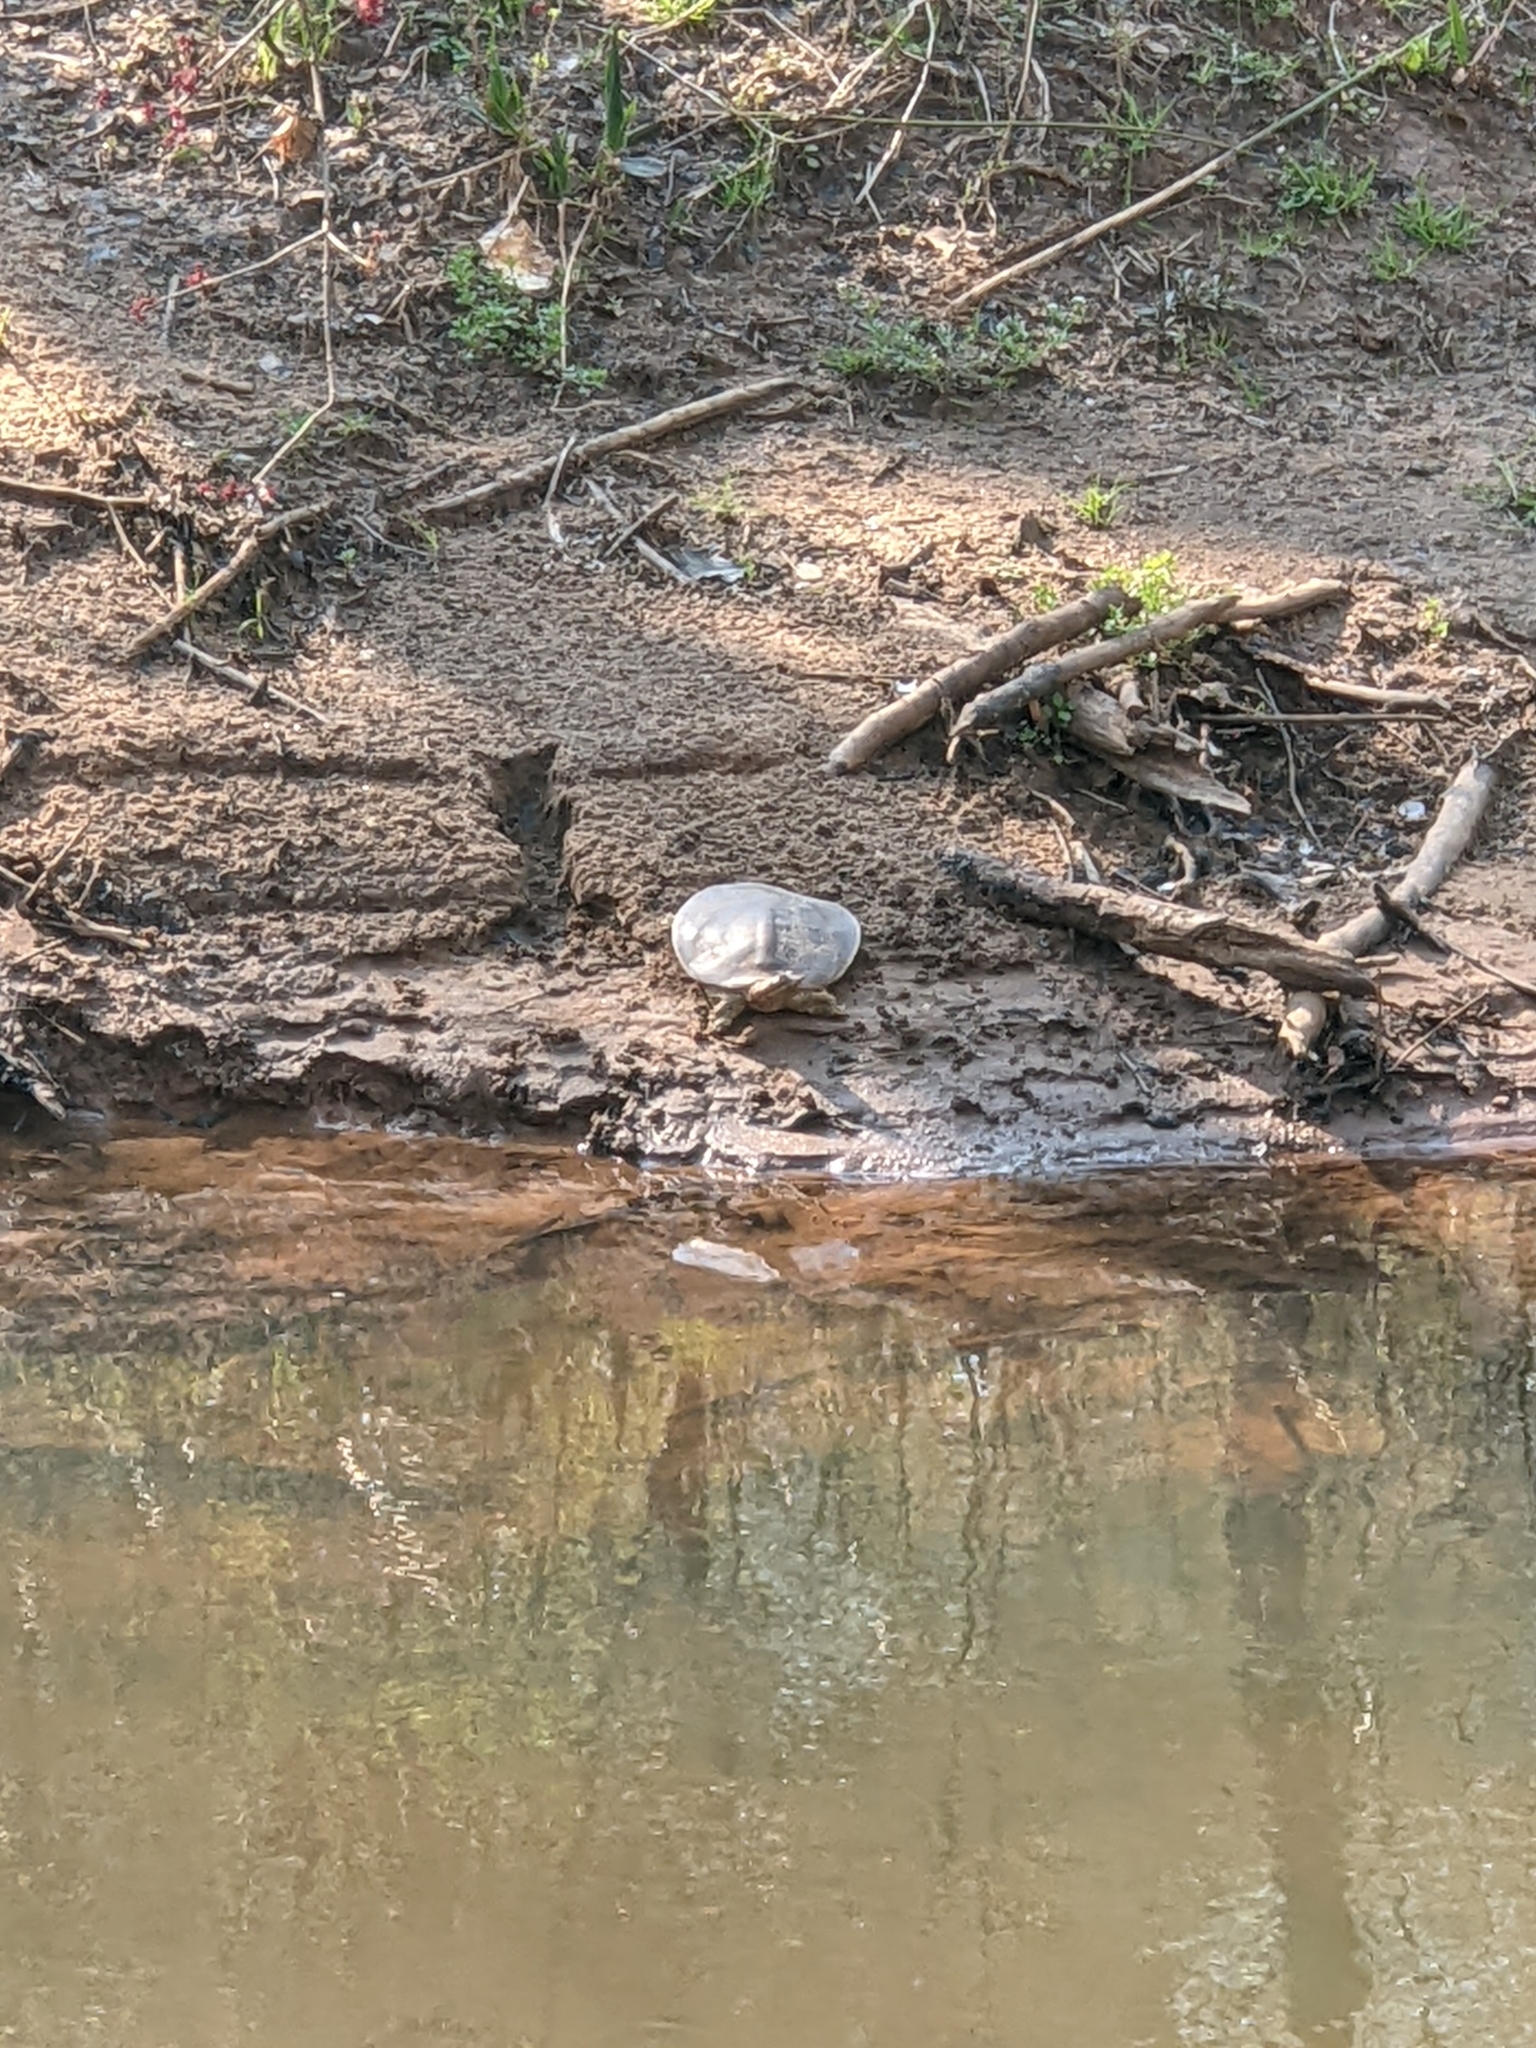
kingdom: Animalia
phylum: Chordata
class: Testudines
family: Trionychidae
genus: Apalone
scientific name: Apalone spinifera
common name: Spiny softshell turtle
